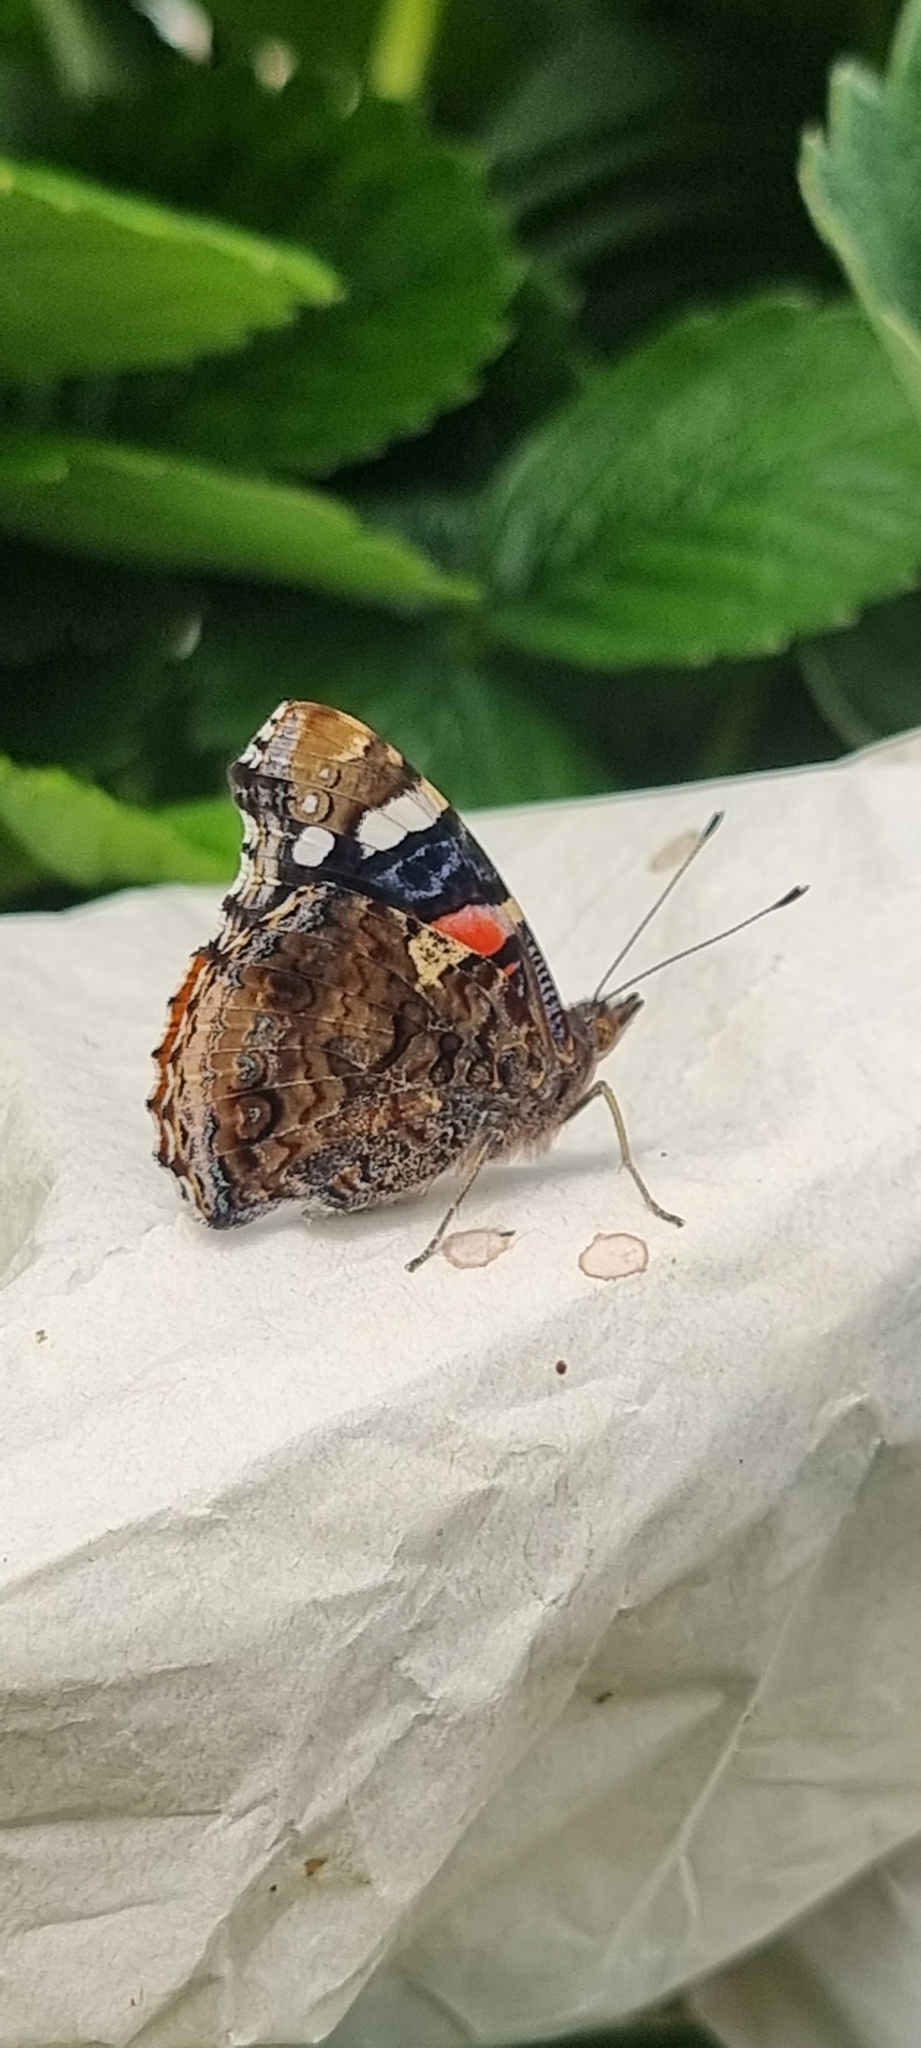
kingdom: Animalia
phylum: Arthropoda
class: Insecta
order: Lepidoptera
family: Nymphalidae
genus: Vanessa
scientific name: Vanessa atalanta
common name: Red admiral
